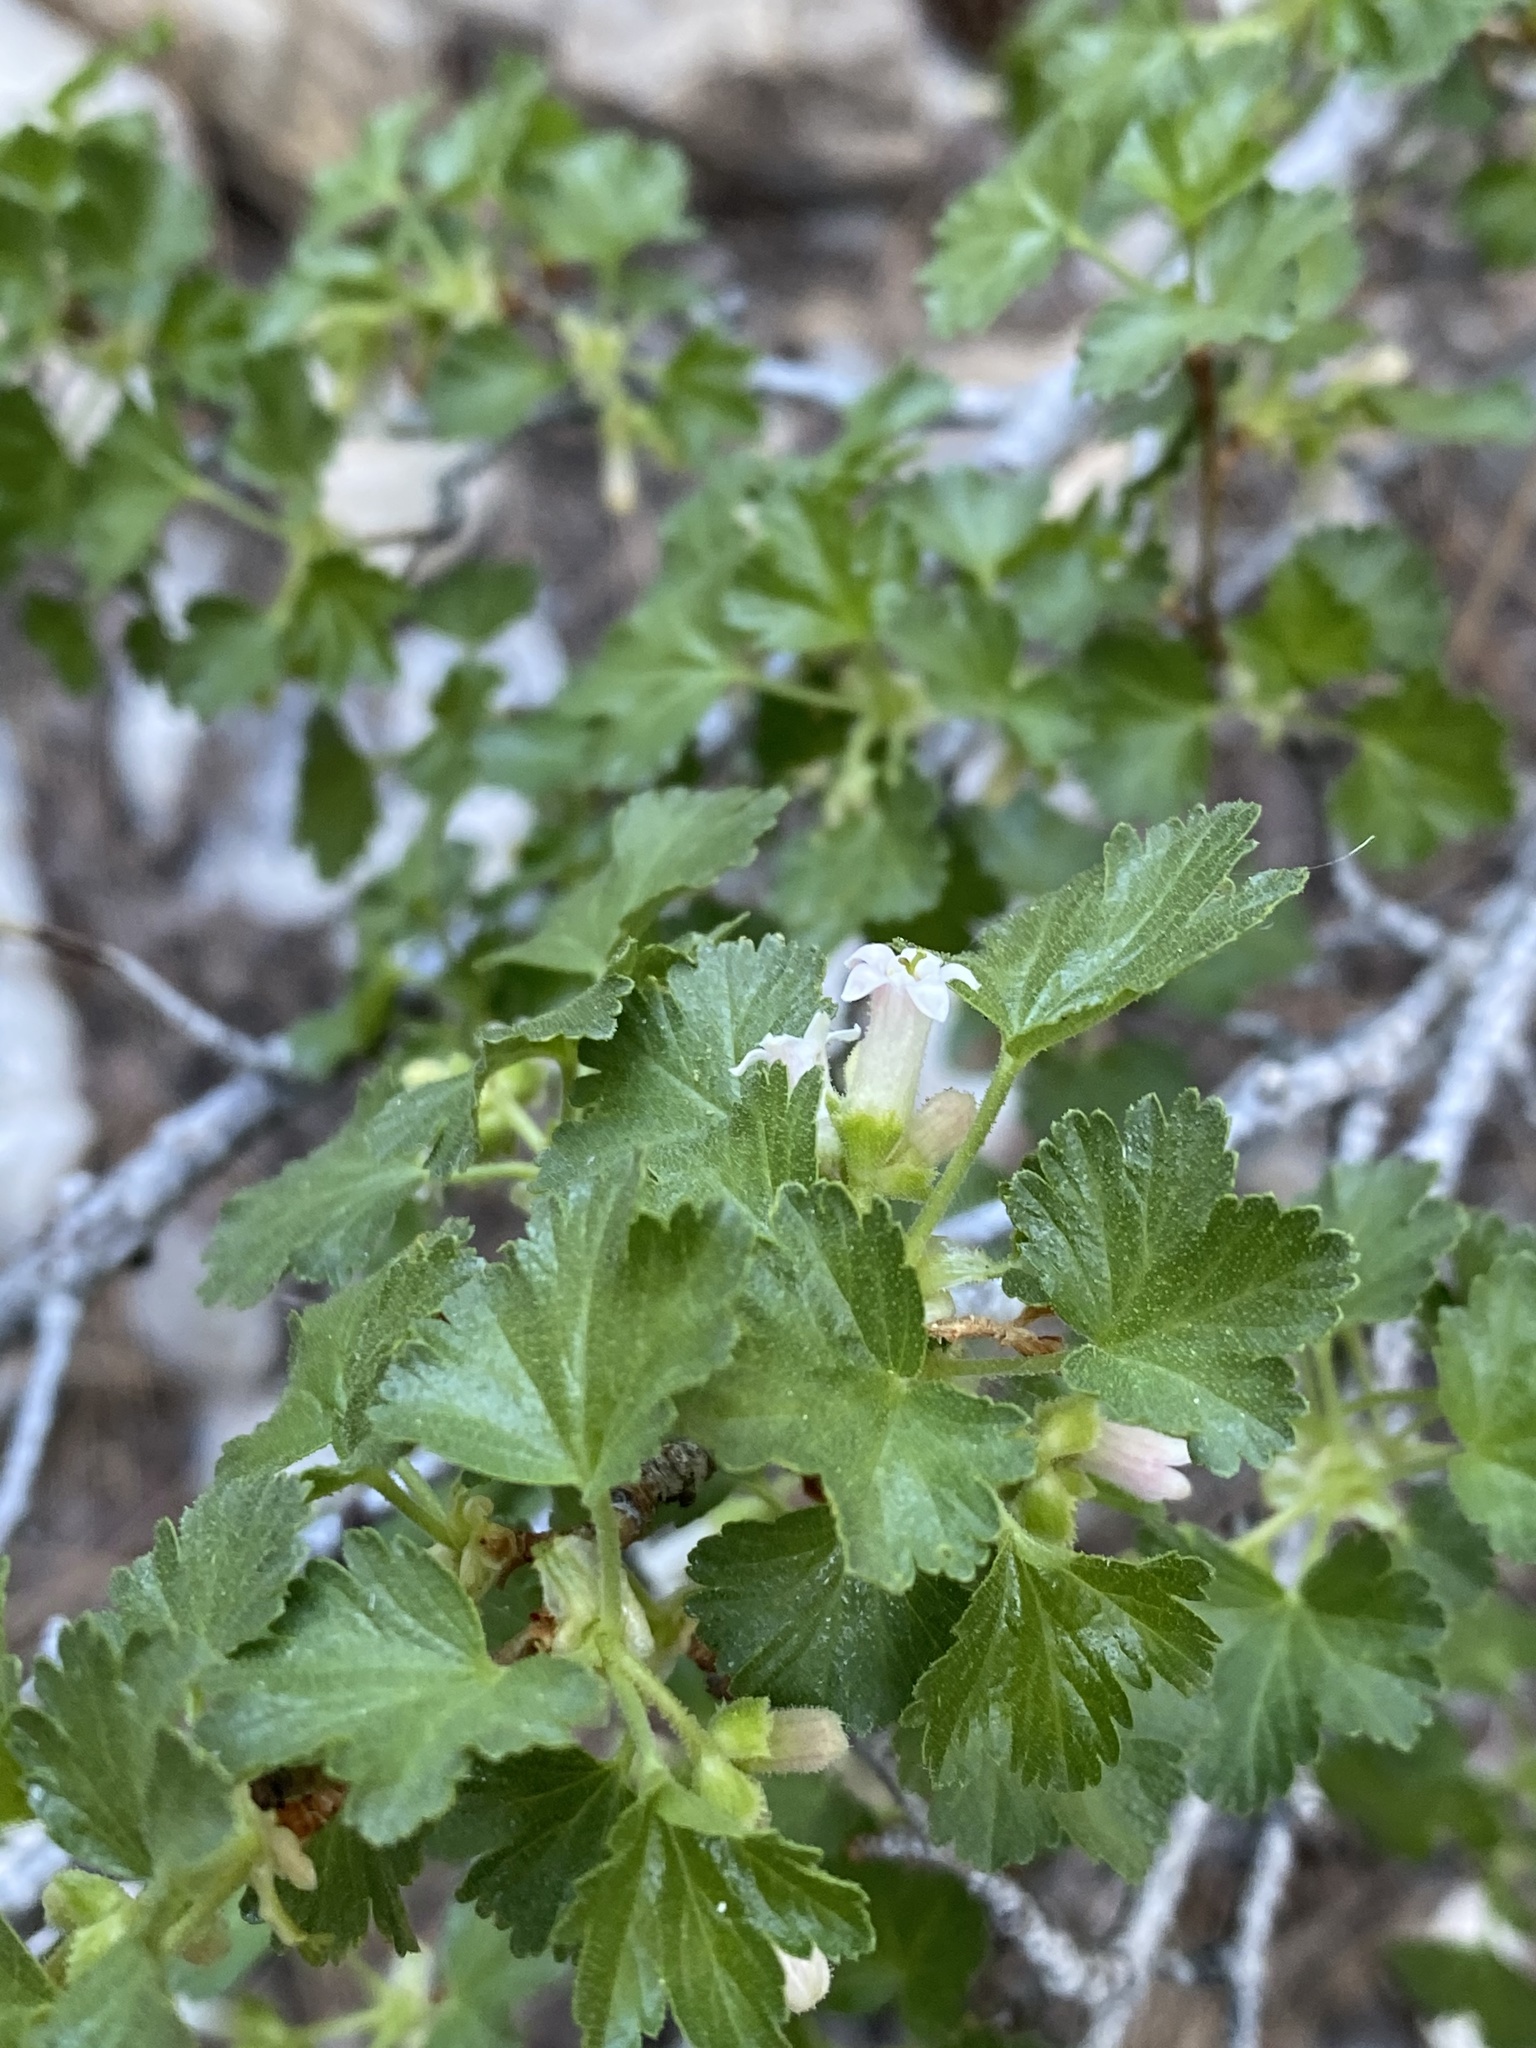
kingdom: Plantae
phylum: Tracheophyta
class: Magnoliopsida
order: Saxifragales
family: Grossulariaceae
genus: Ribes
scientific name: Ribes cereum
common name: Wax currant
